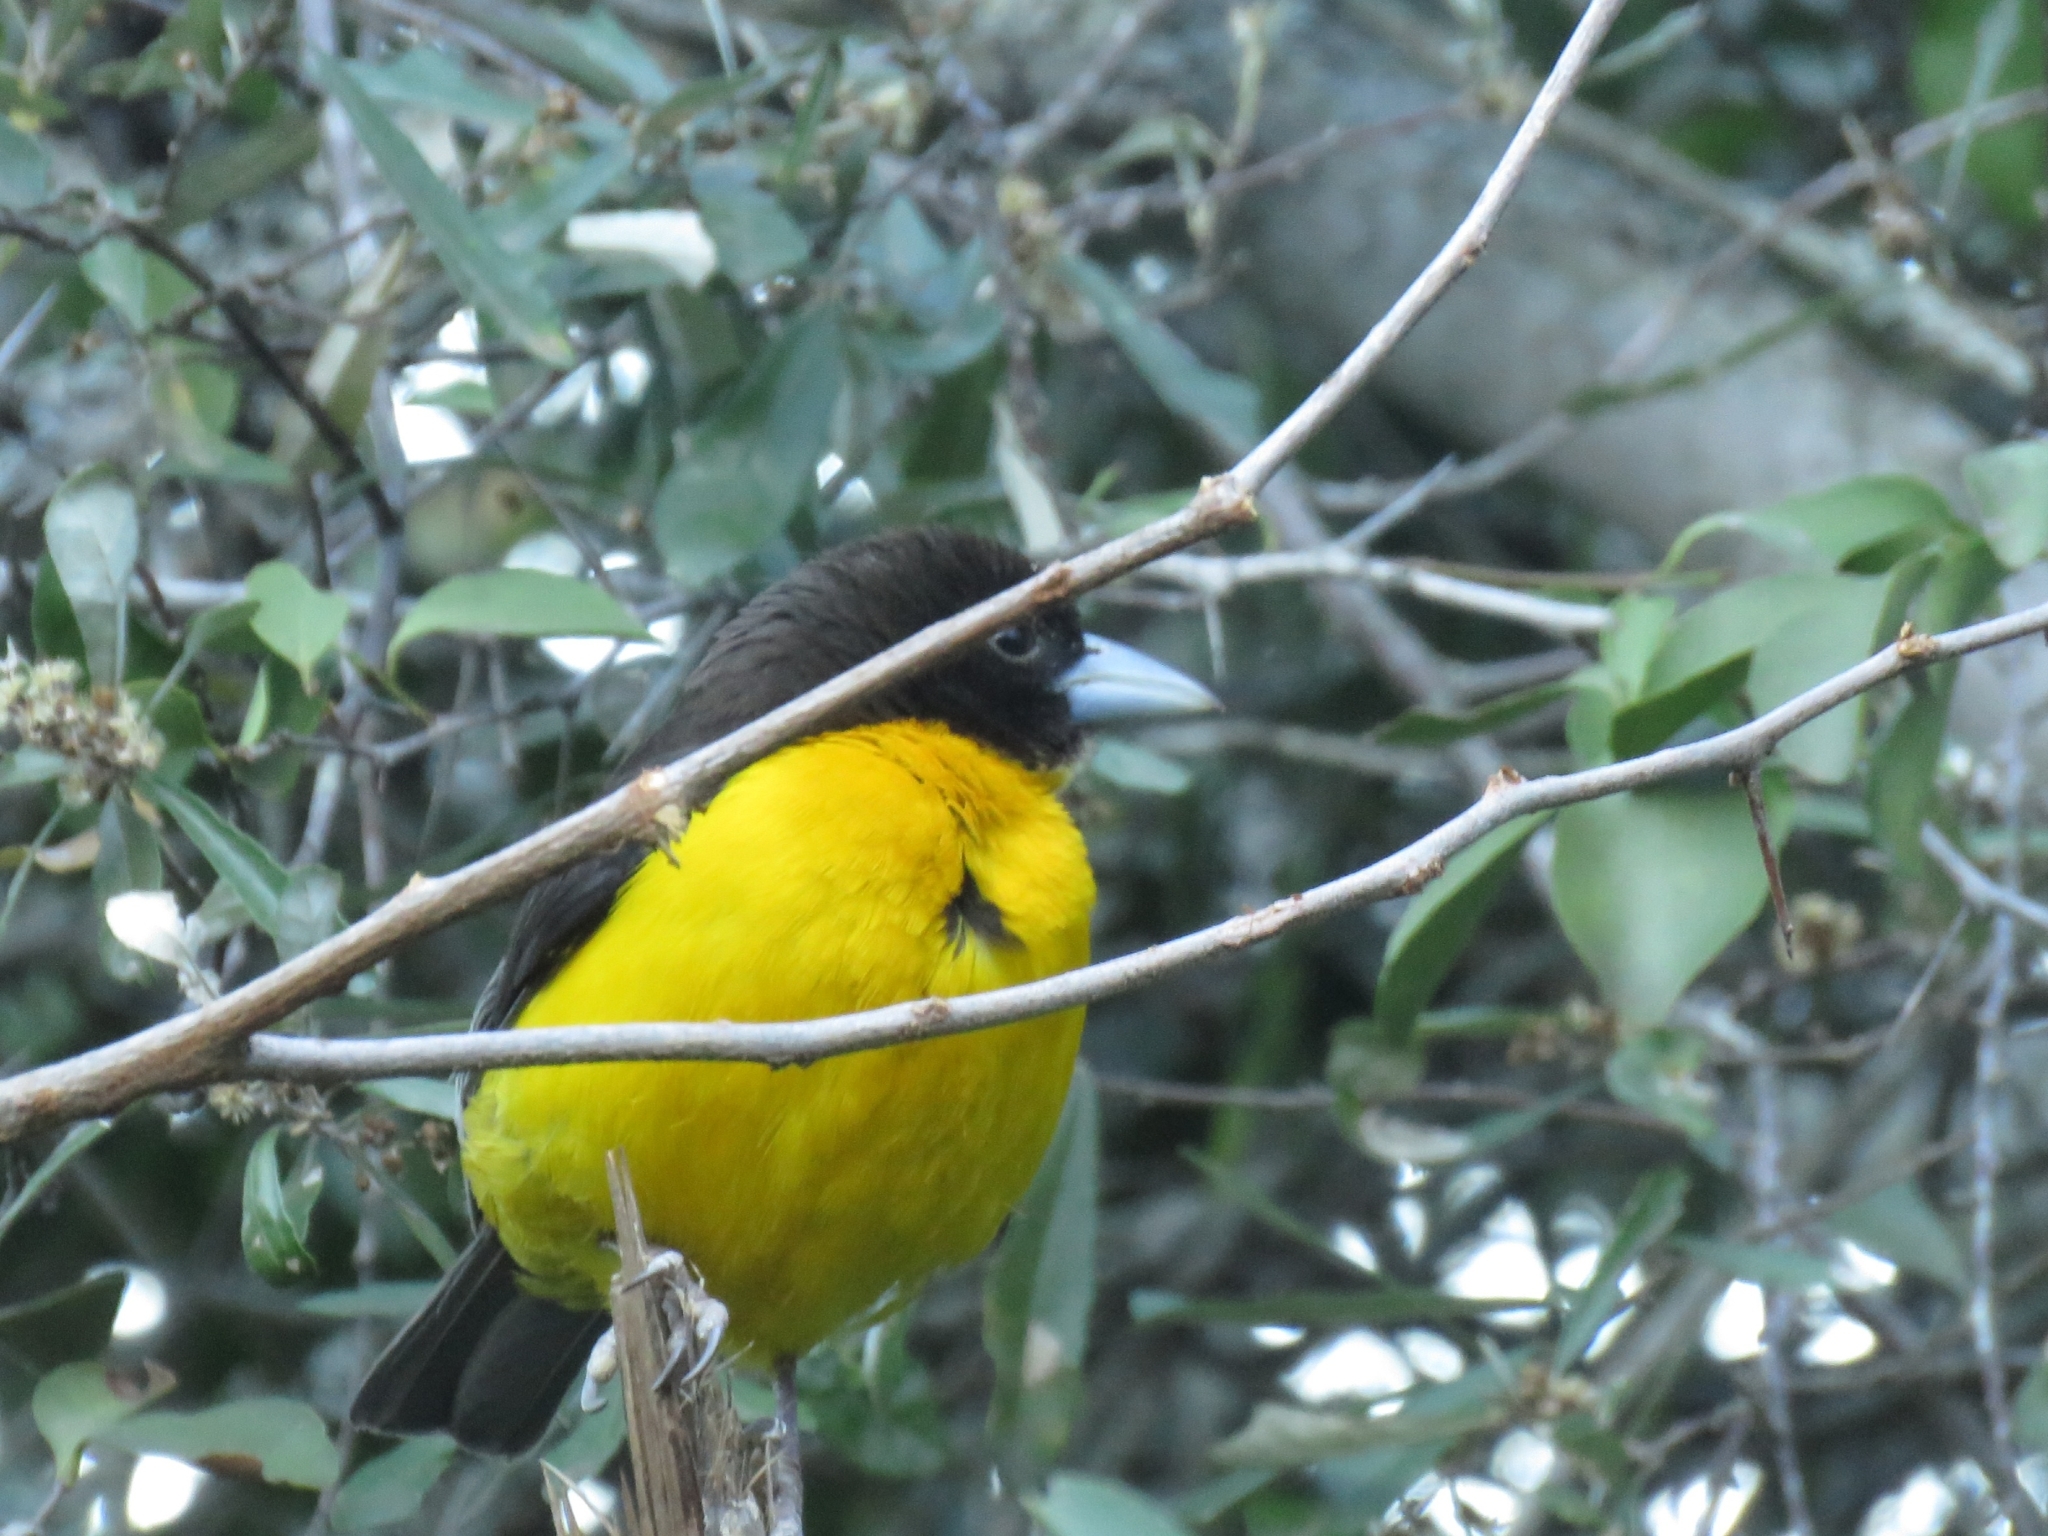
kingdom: Animalia
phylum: Chordata
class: Aves
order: Passeriformes
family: Ploceidae
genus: Ploceus
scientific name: Ploceus bicolor
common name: Dark-backed weaver
